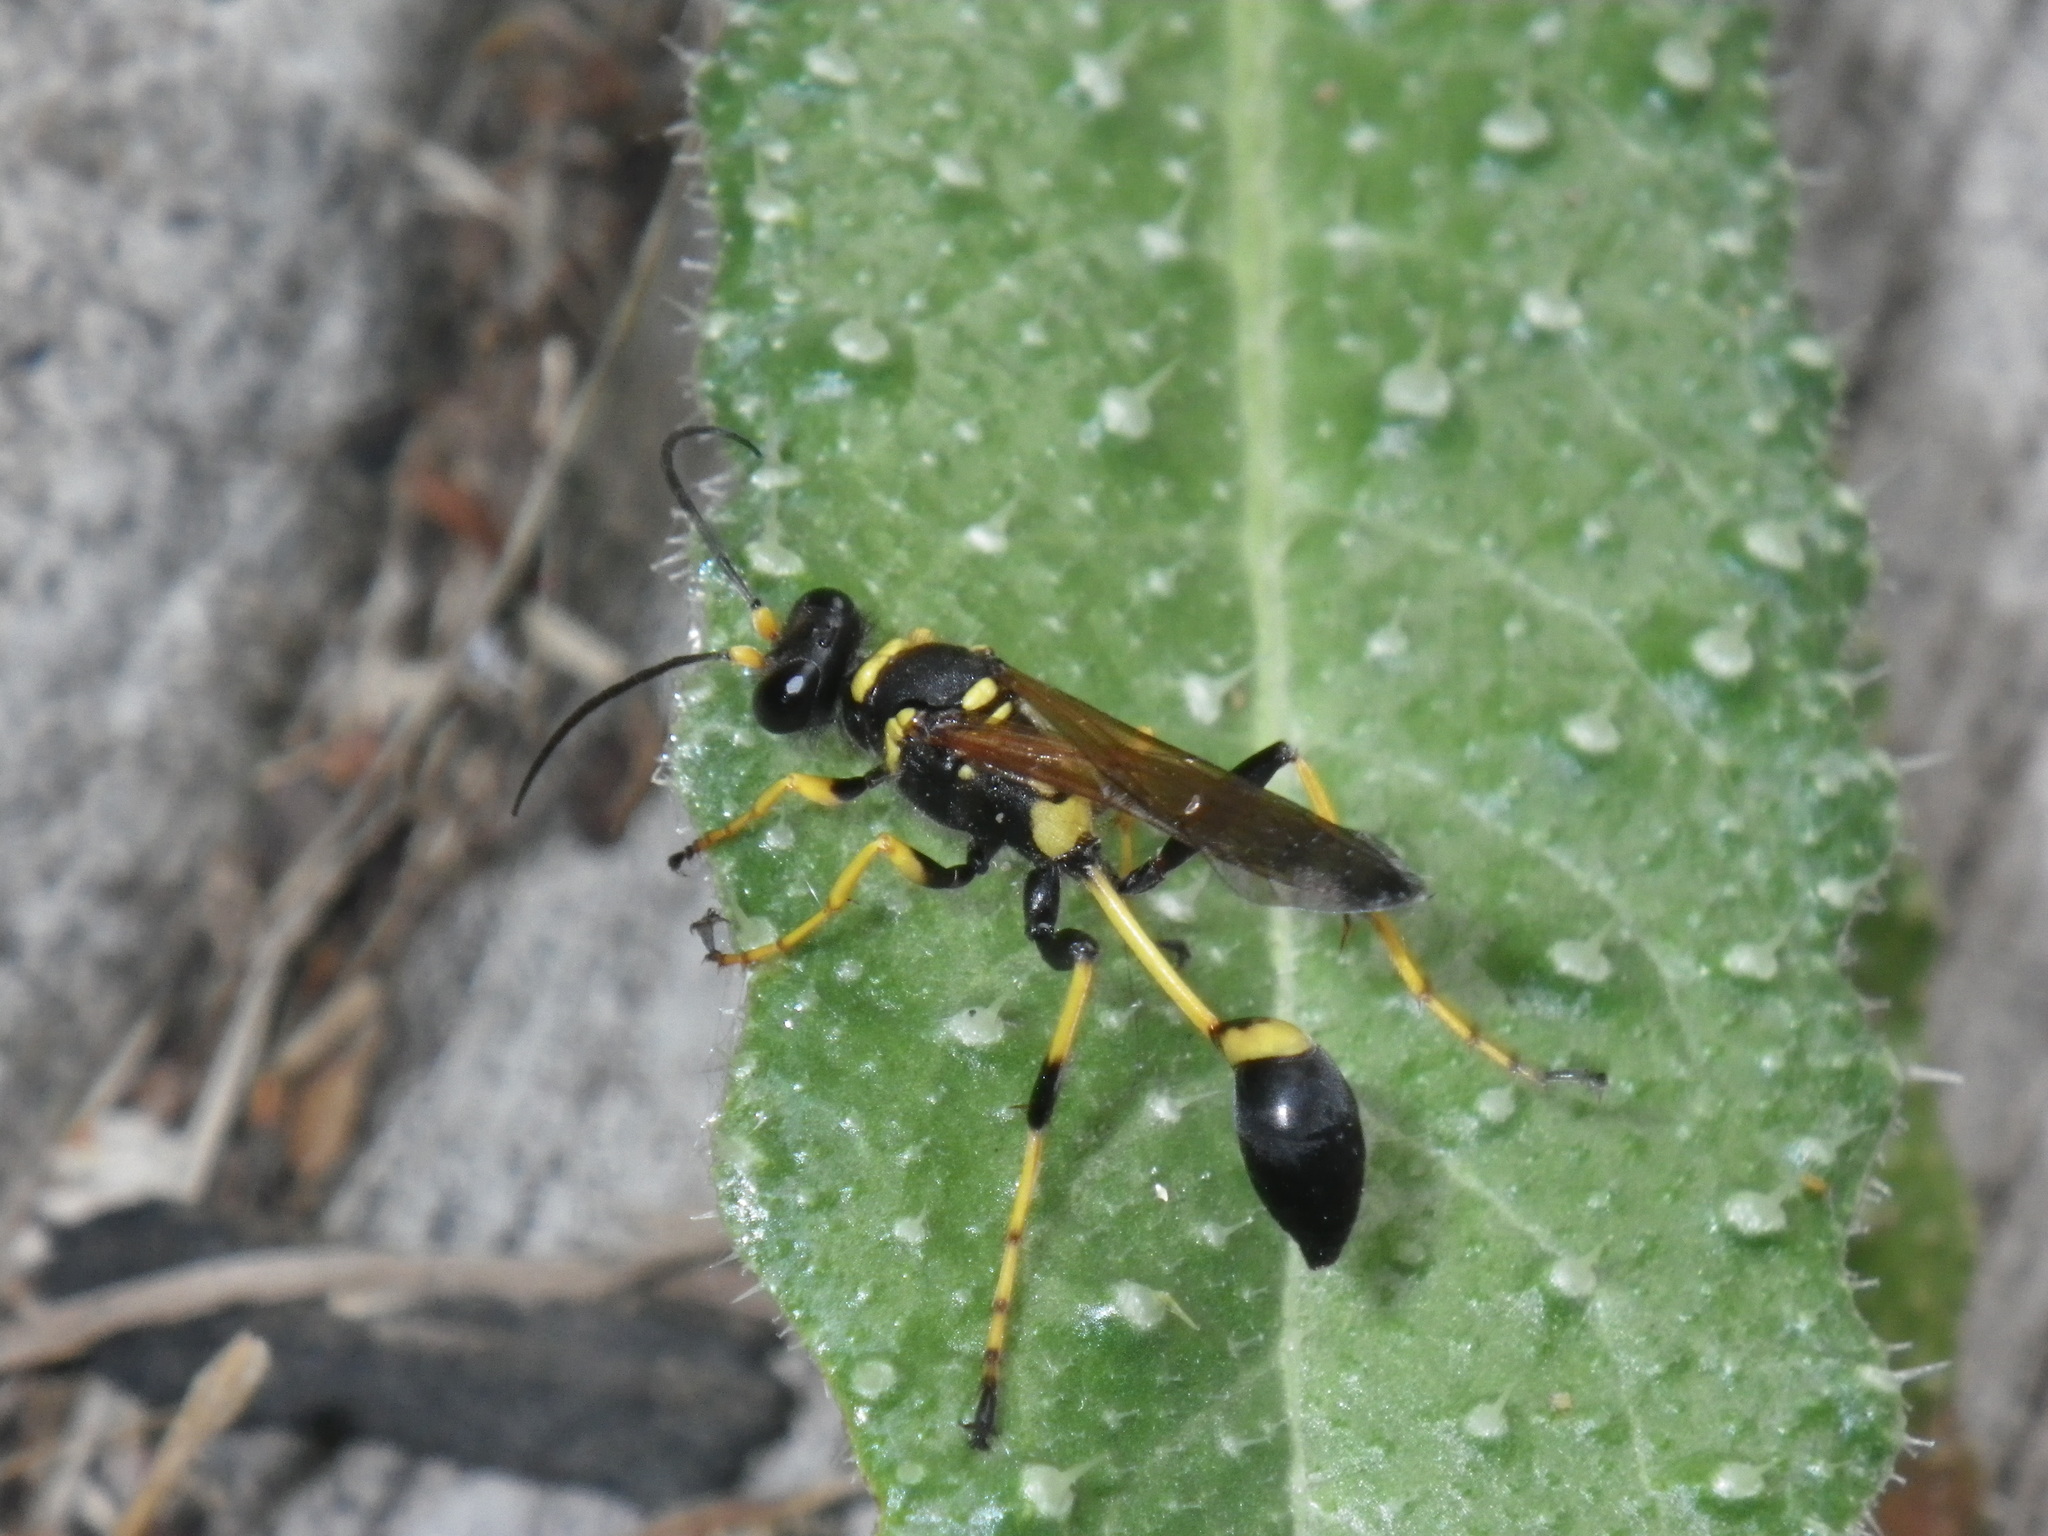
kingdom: Animalia
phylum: Arthropoda
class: Insecta
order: Hymenoptera
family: Sphecidae
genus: Sceliphron
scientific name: Sceliphron caementarium
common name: Mud dauber
